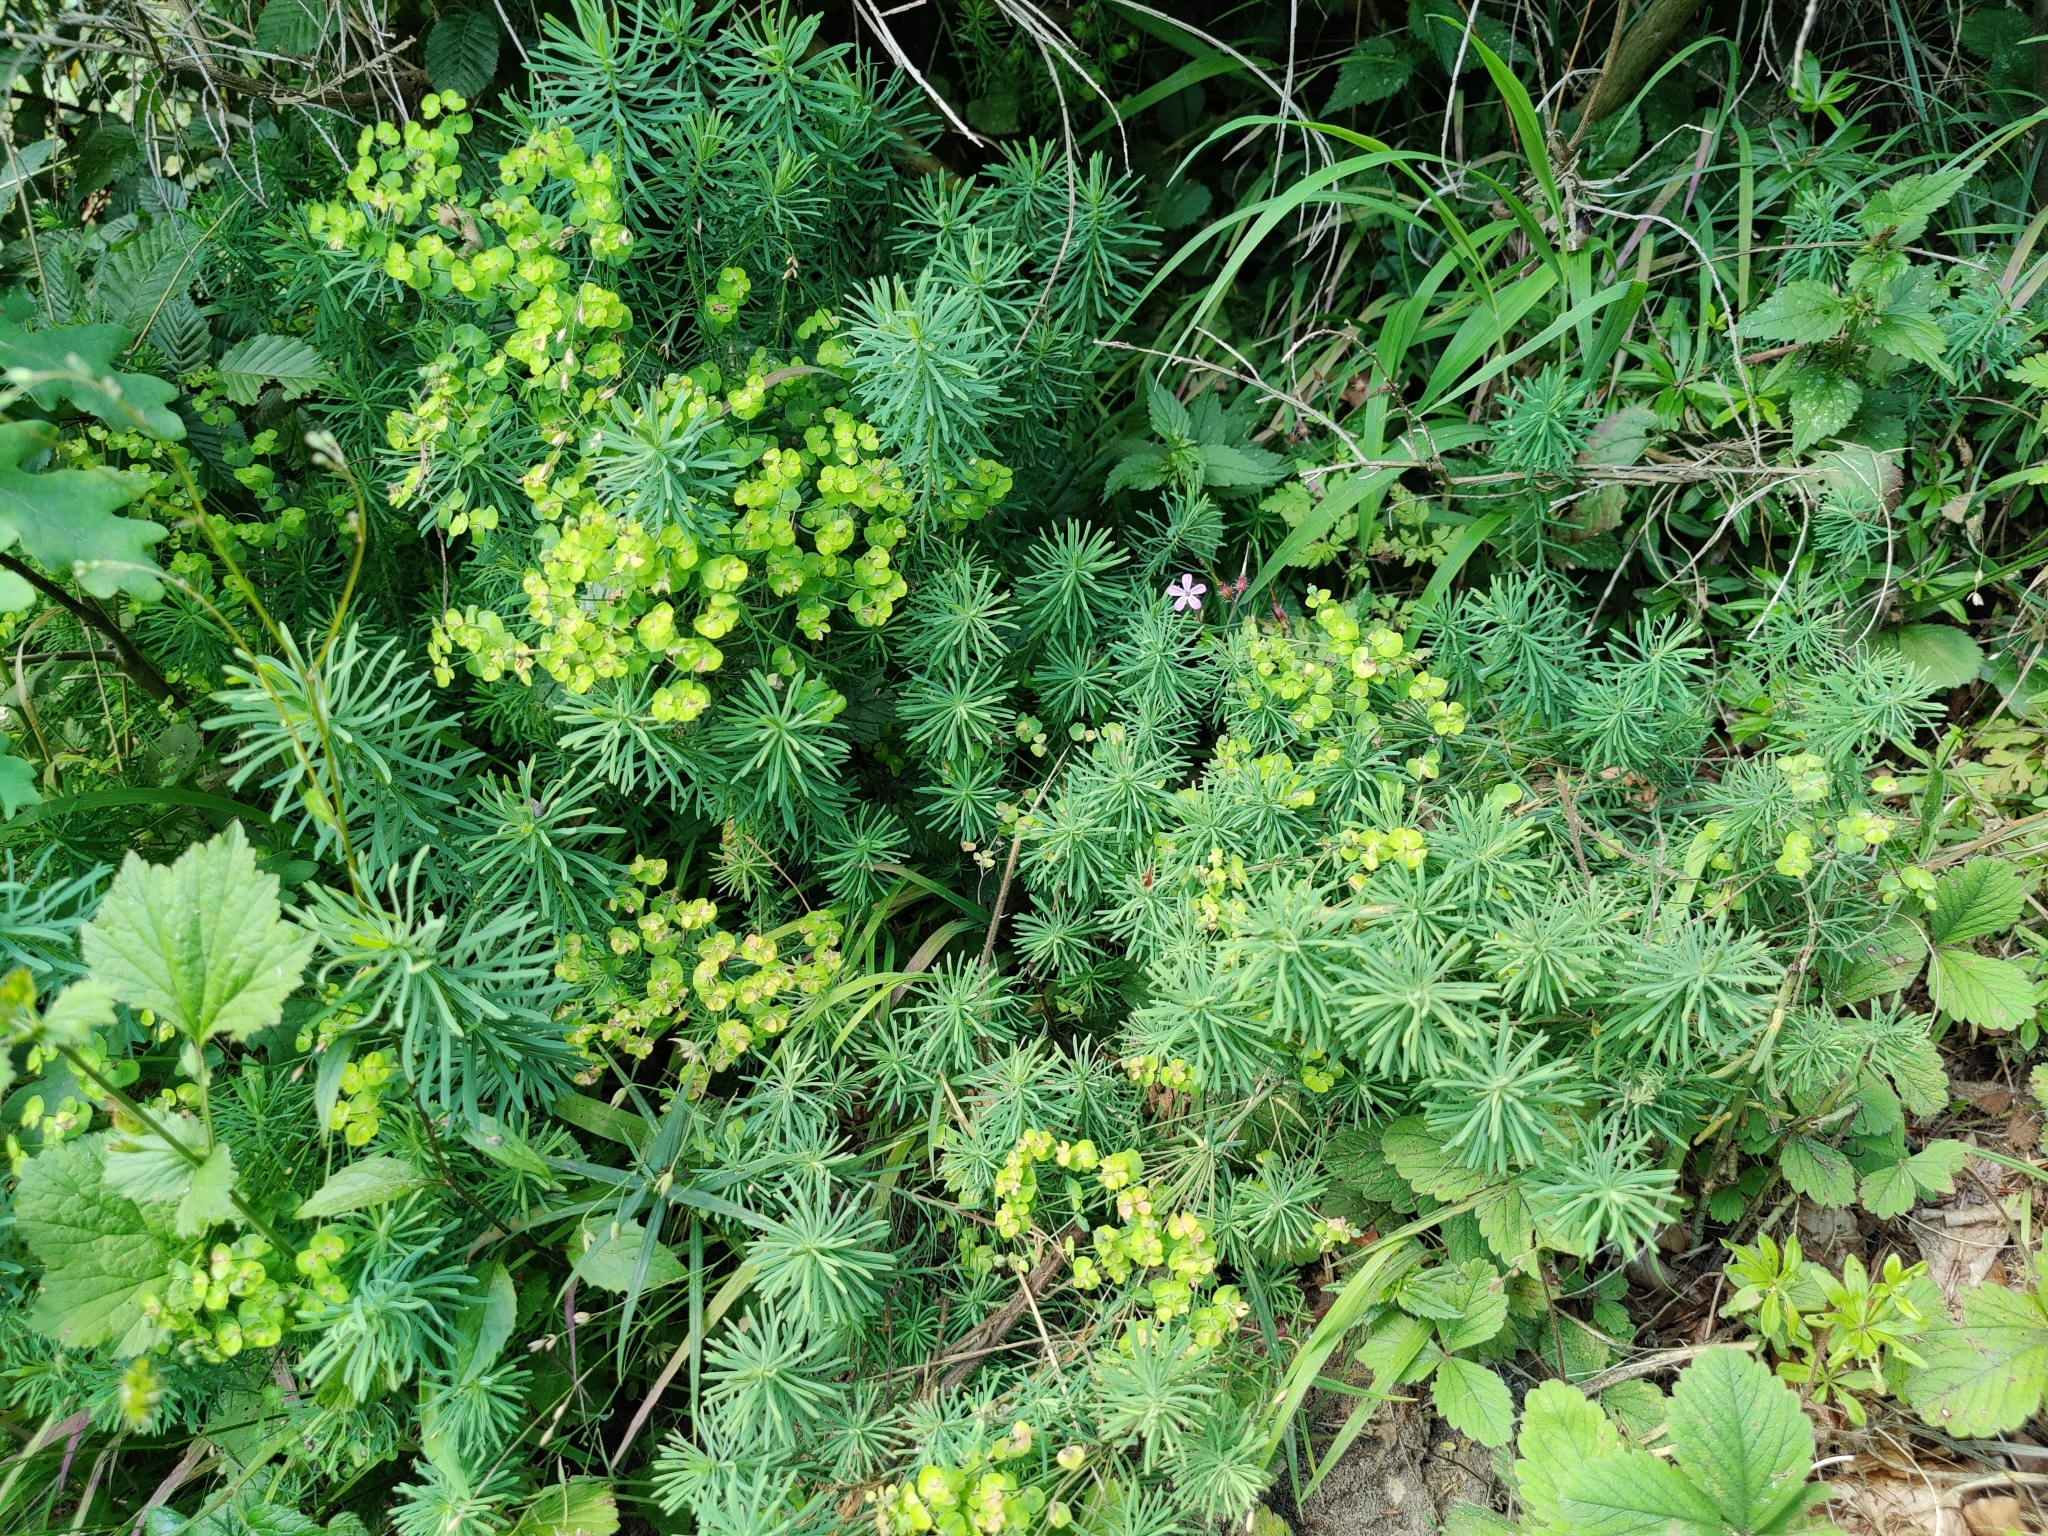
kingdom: Plantae
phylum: Tracheophyta
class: Magnoliopsida
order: Malpighiales
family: Euphorbiaceae
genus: Euphorbia
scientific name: Euphorbia cyparissias
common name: Cypress spurge
